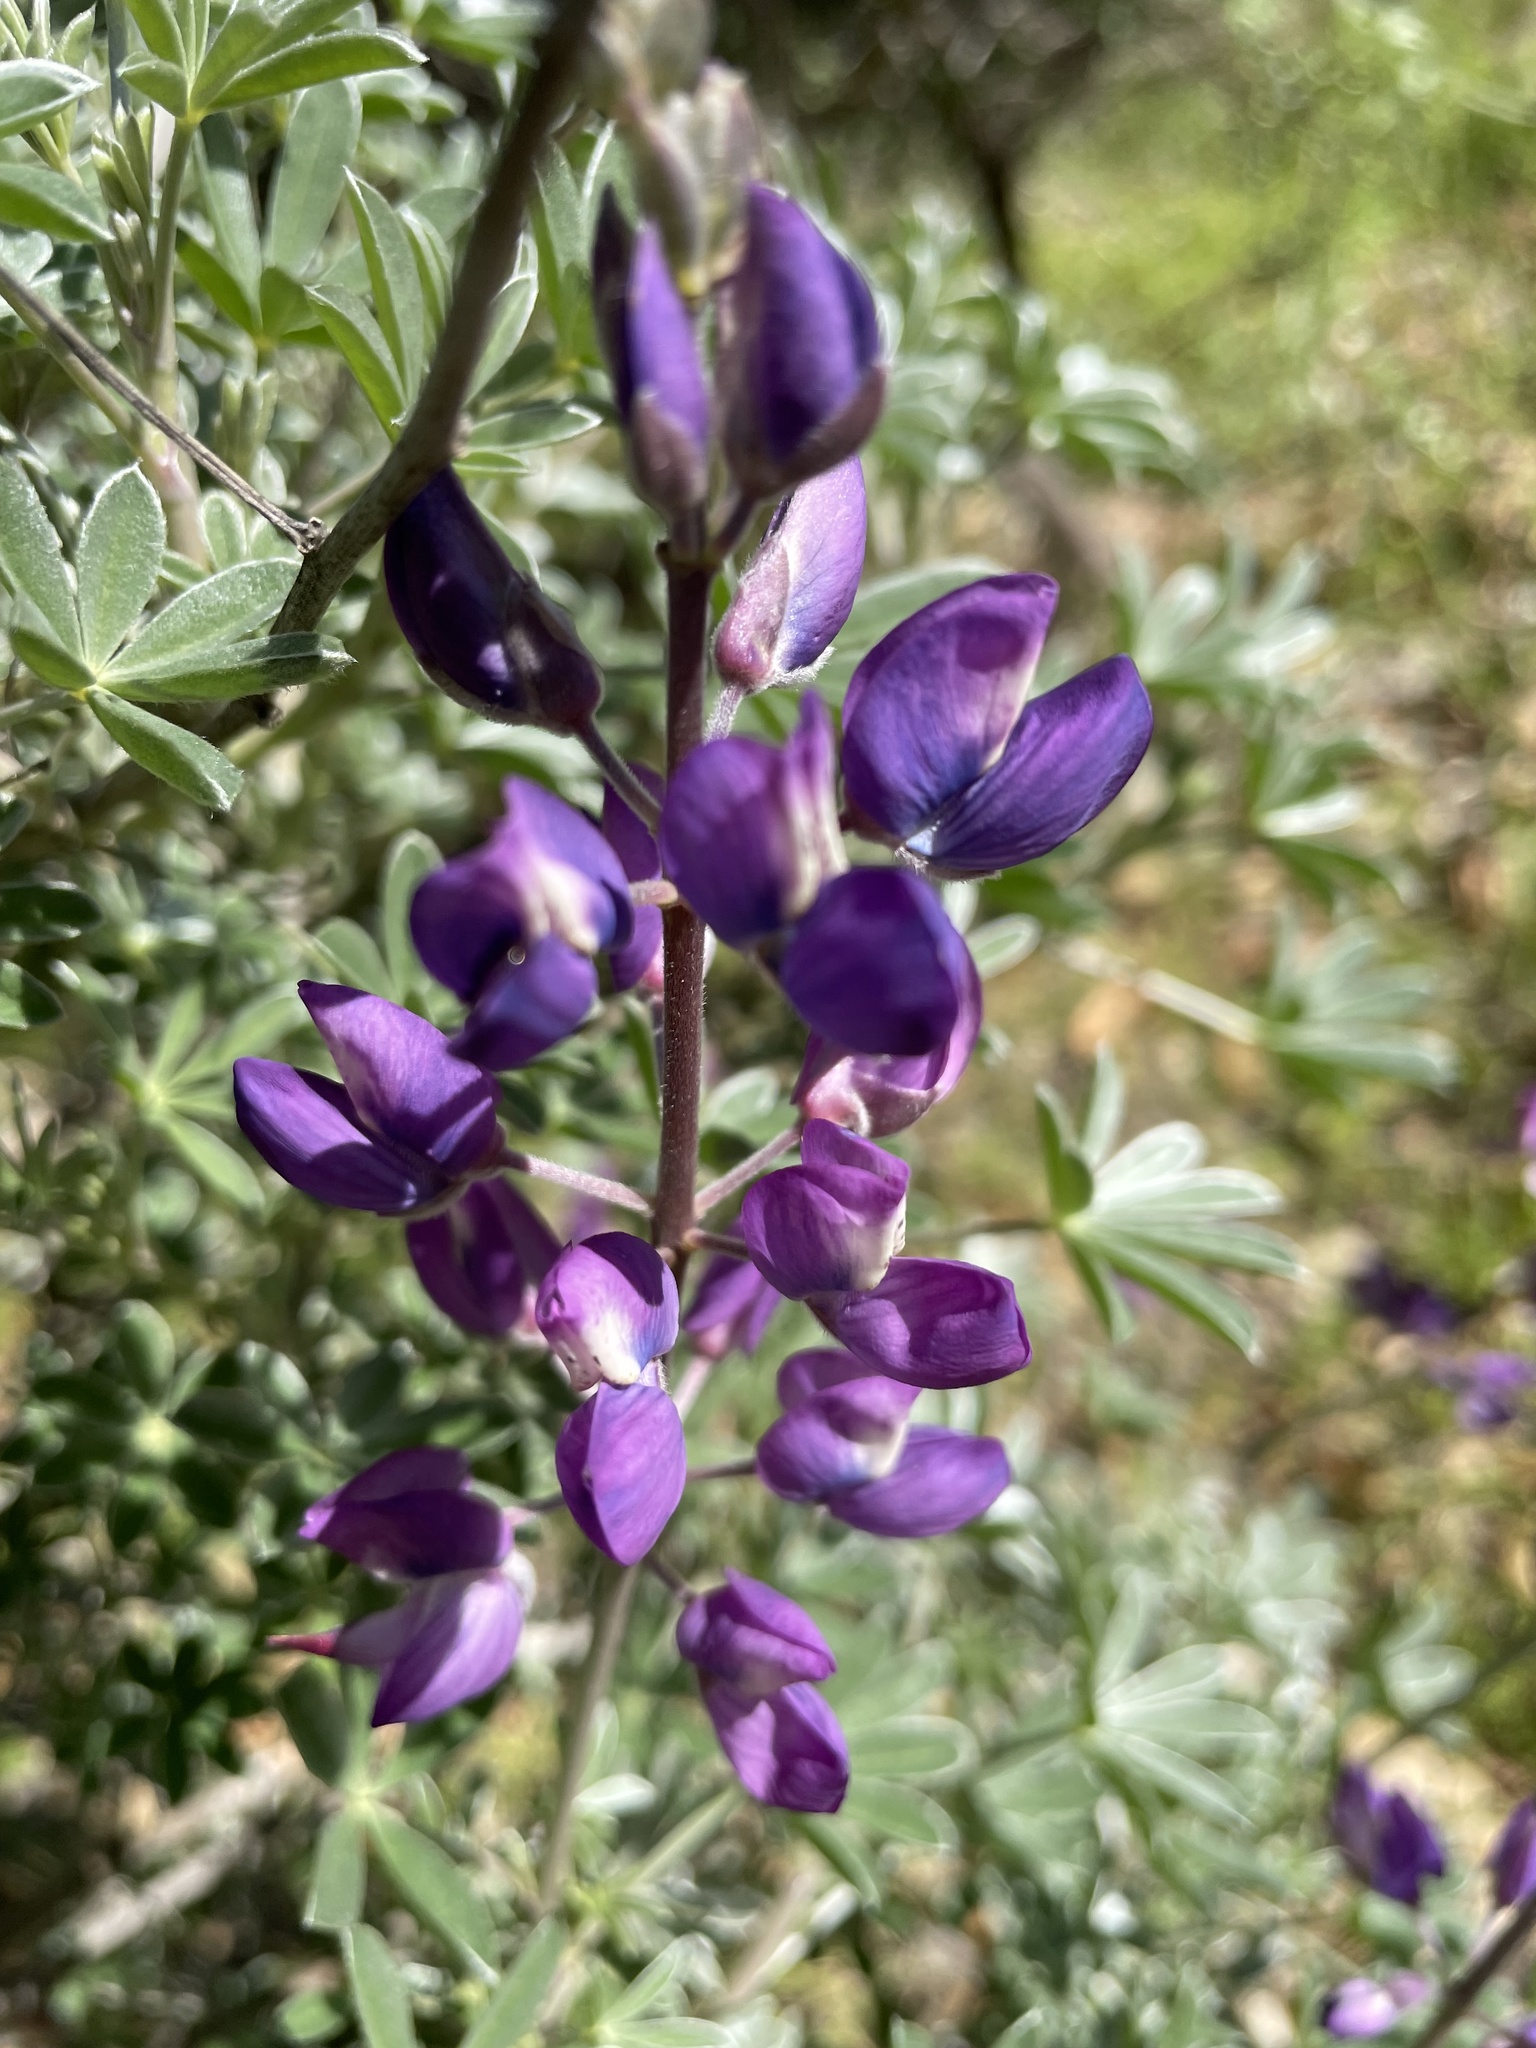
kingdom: Plantae
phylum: Tracheophyta
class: Magnoliopsida
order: Fabales
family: Fabaceae
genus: Lupinus
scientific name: Lupinus albifrons
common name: Foothill lupine
